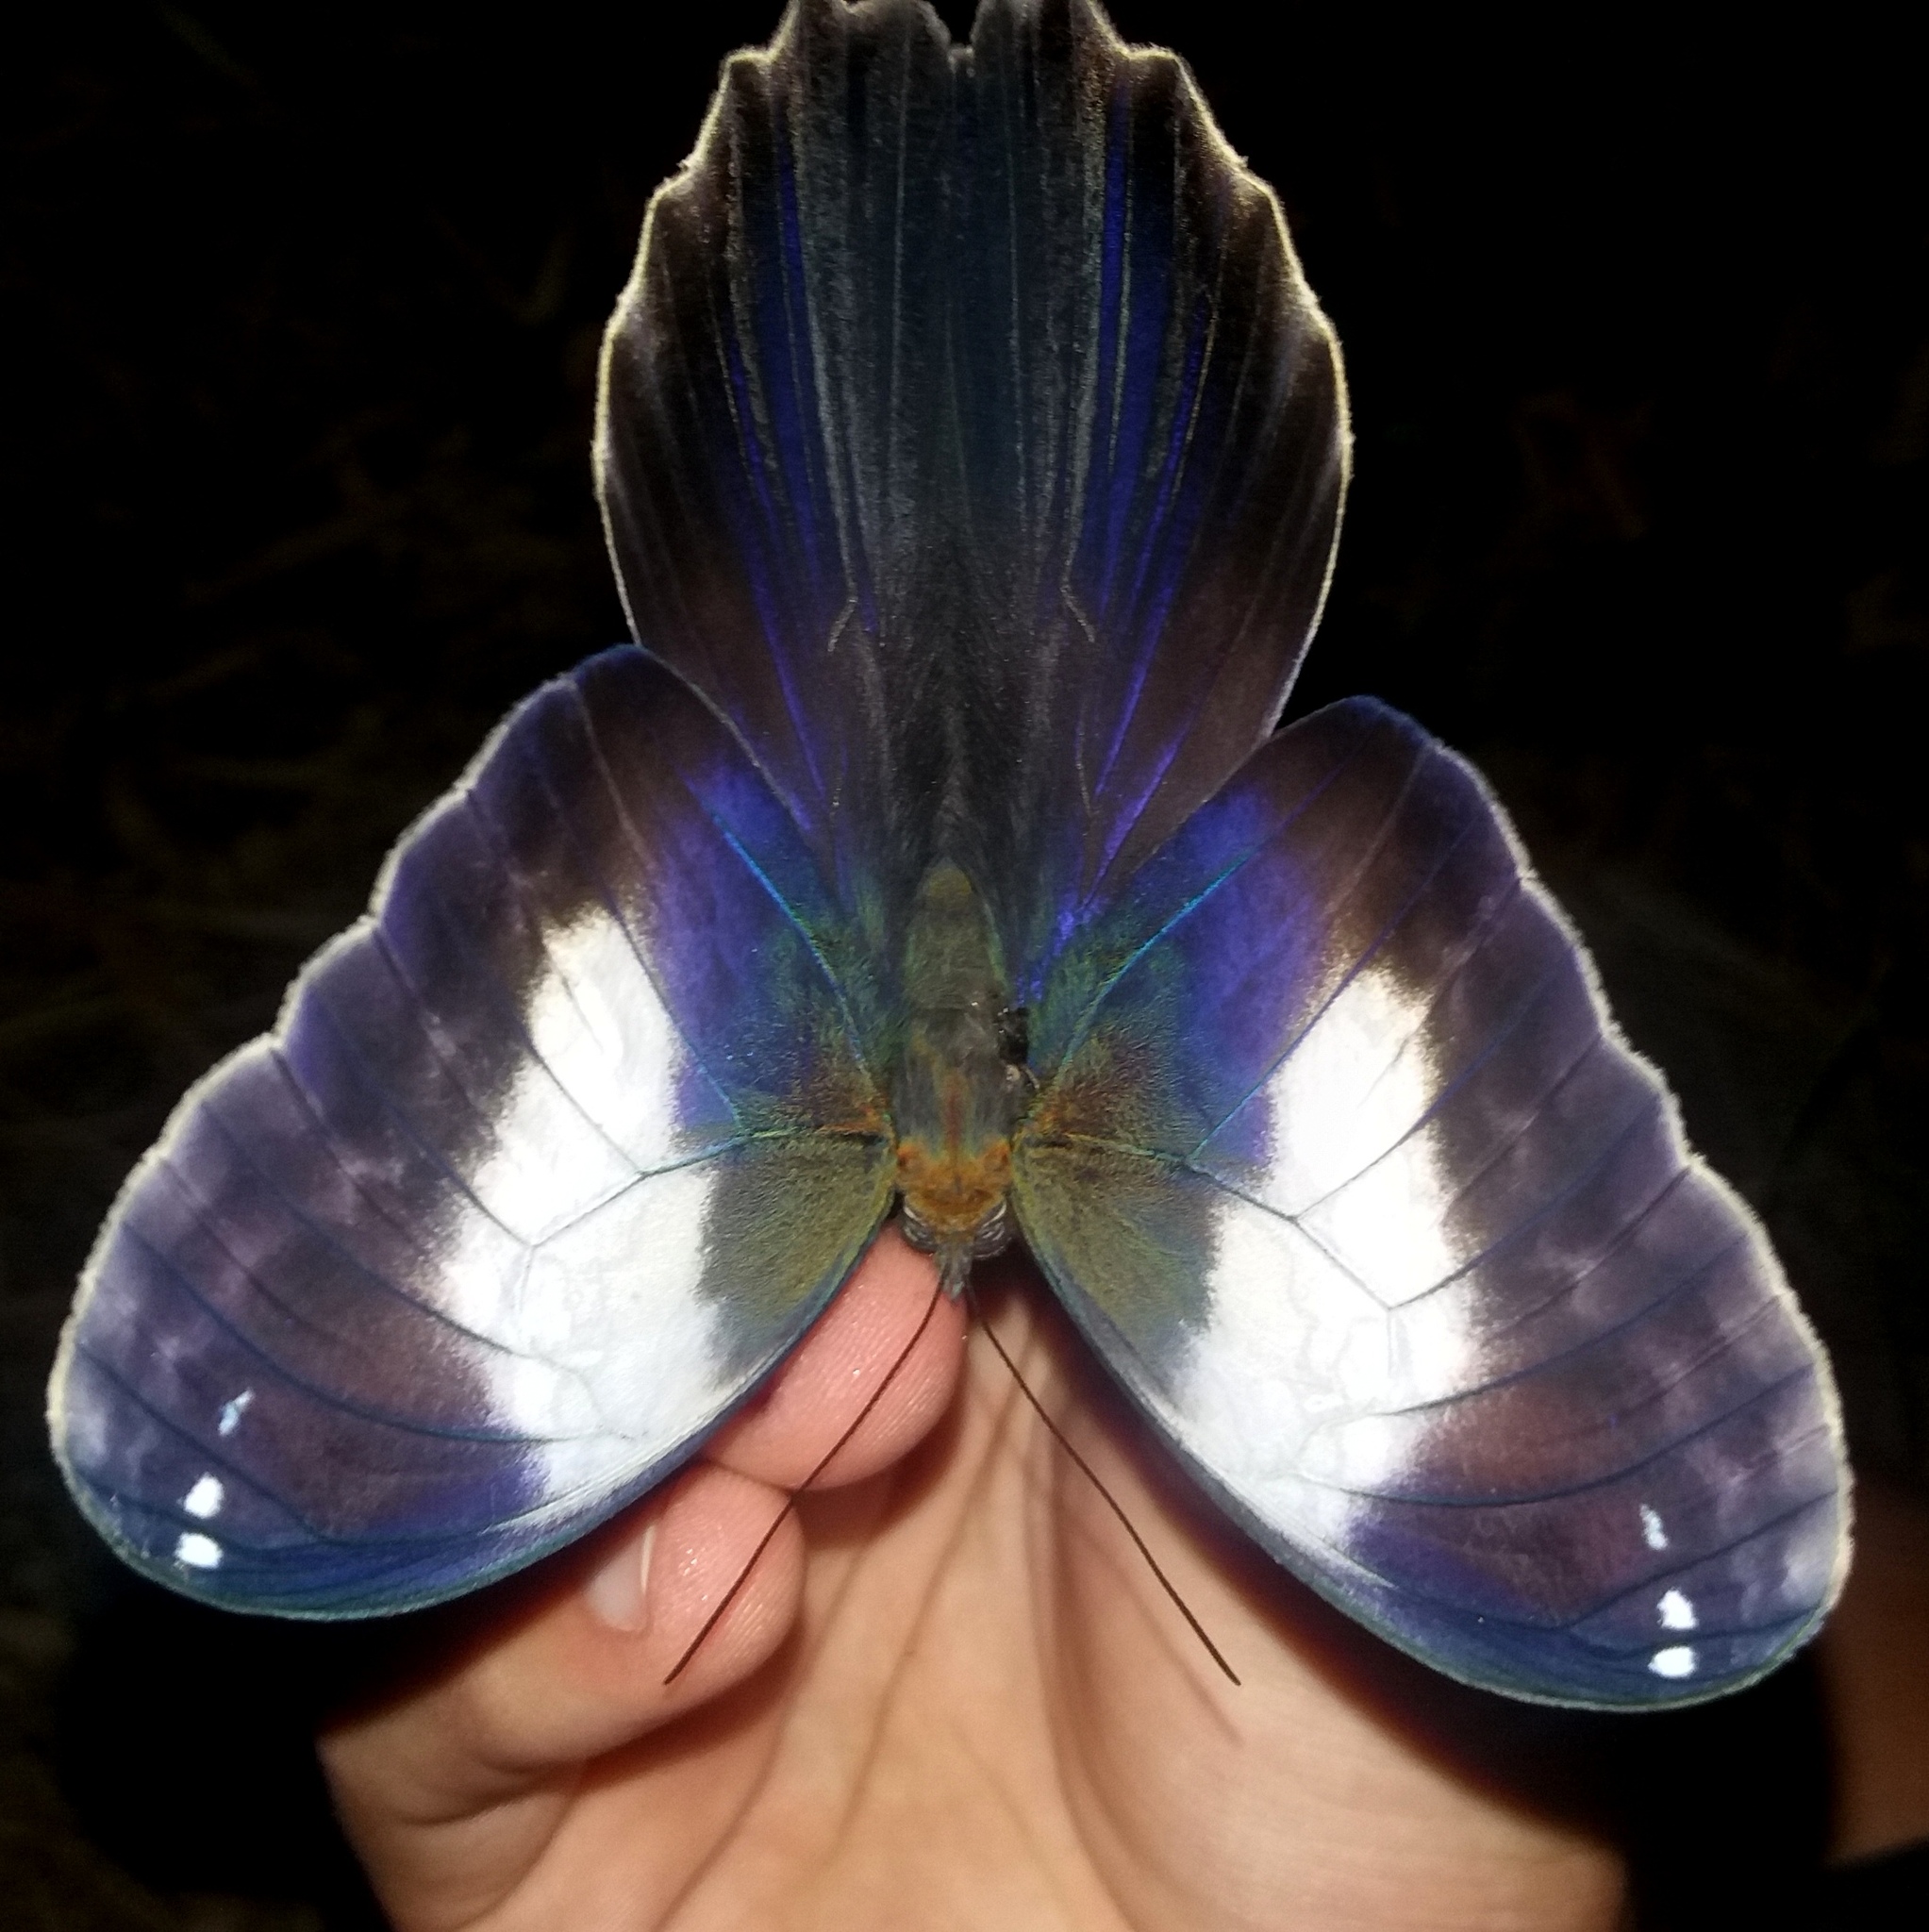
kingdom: Animalia
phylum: Arthropoda
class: Insecta
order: Lepidoptera
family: Nymphalidae
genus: Caligo
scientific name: Caligo martia
